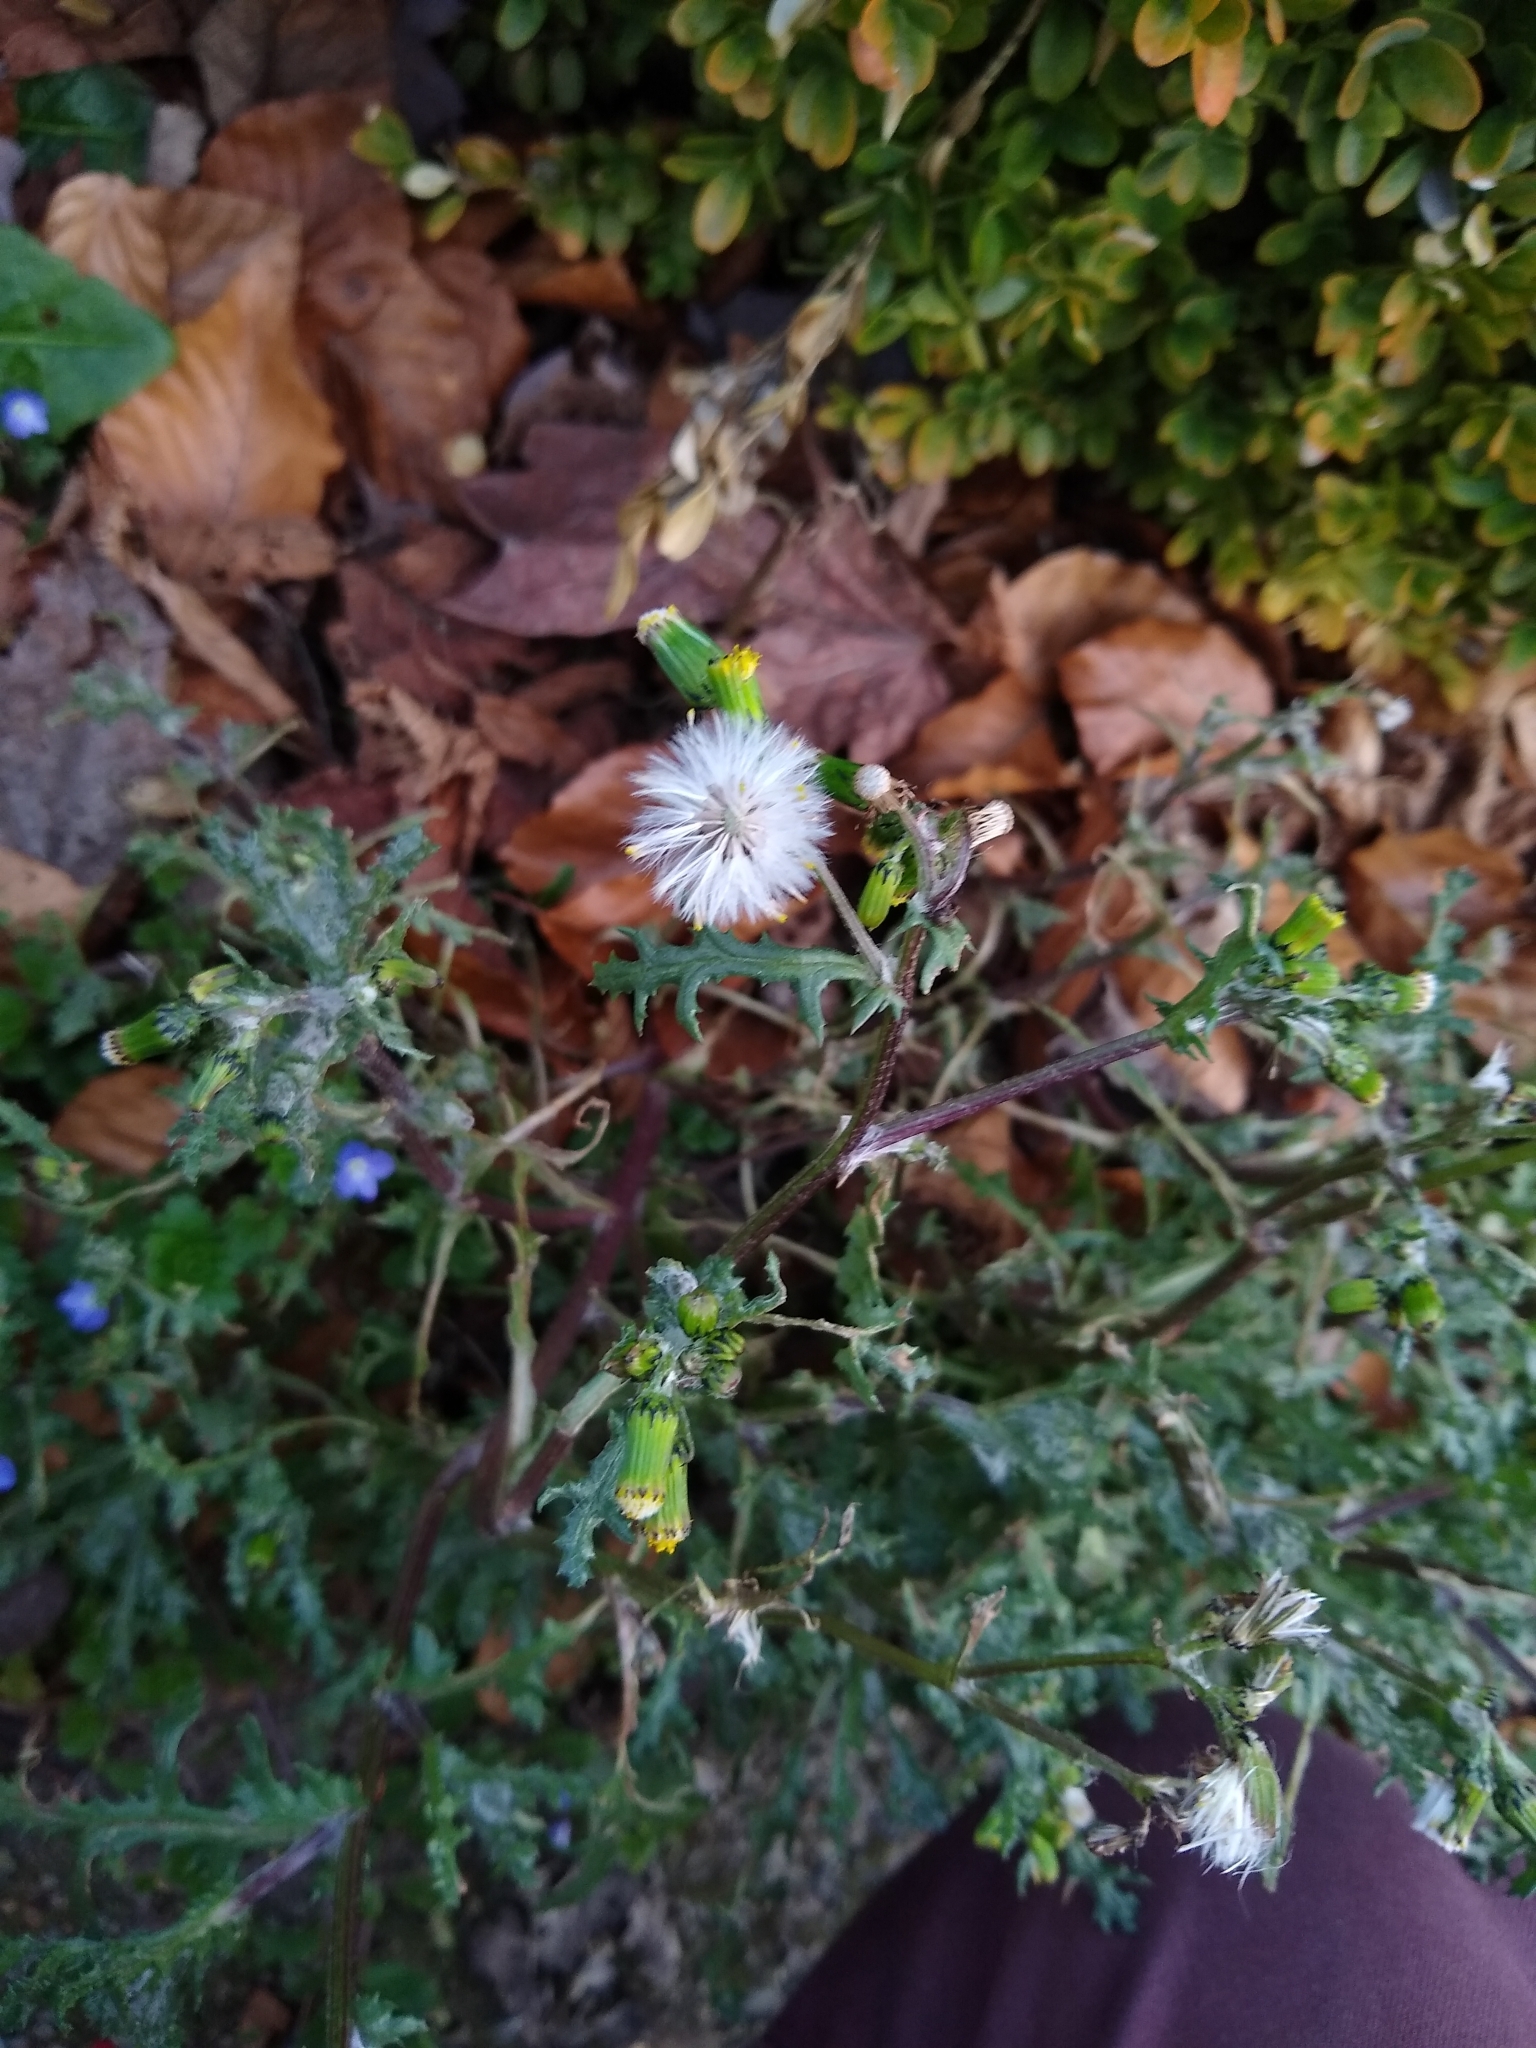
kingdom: Plantae
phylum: Tracheophyta
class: Magnoliopsida
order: Asterales
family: Asteraceae
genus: Senecio
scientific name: Senecio vulgaris
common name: Old-man-in-the-spring
